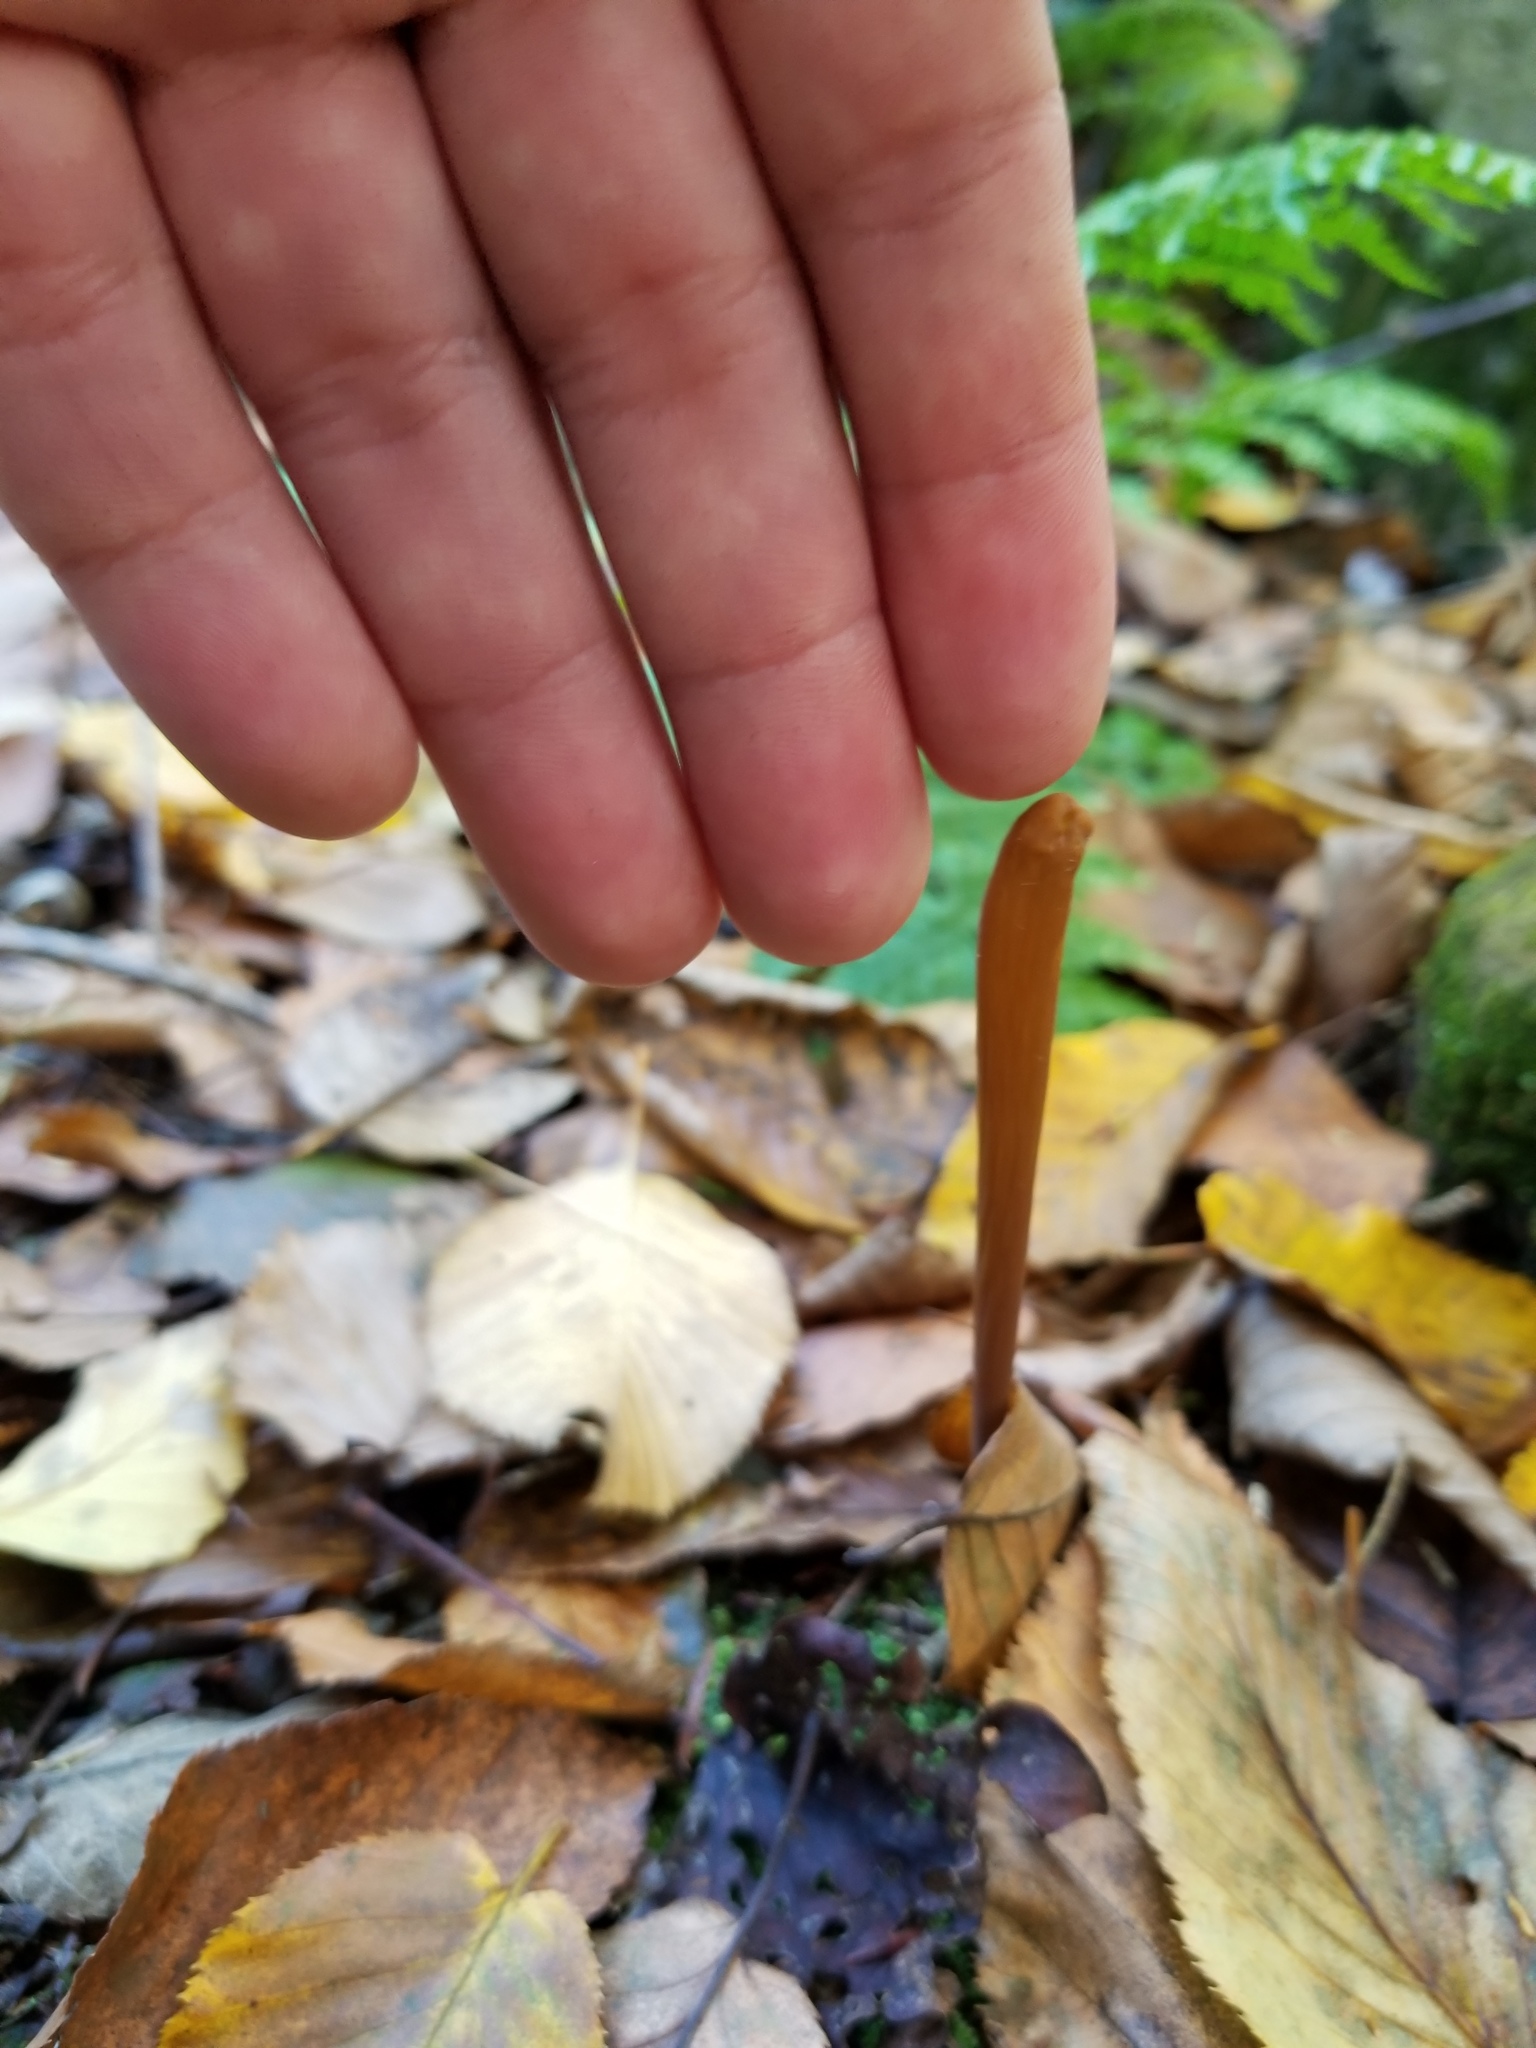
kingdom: Fungi
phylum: Basidiomycota
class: Agaricomycetes
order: Agaricales
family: Typhulaceae
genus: Typhula
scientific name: Typhula fistulosa
